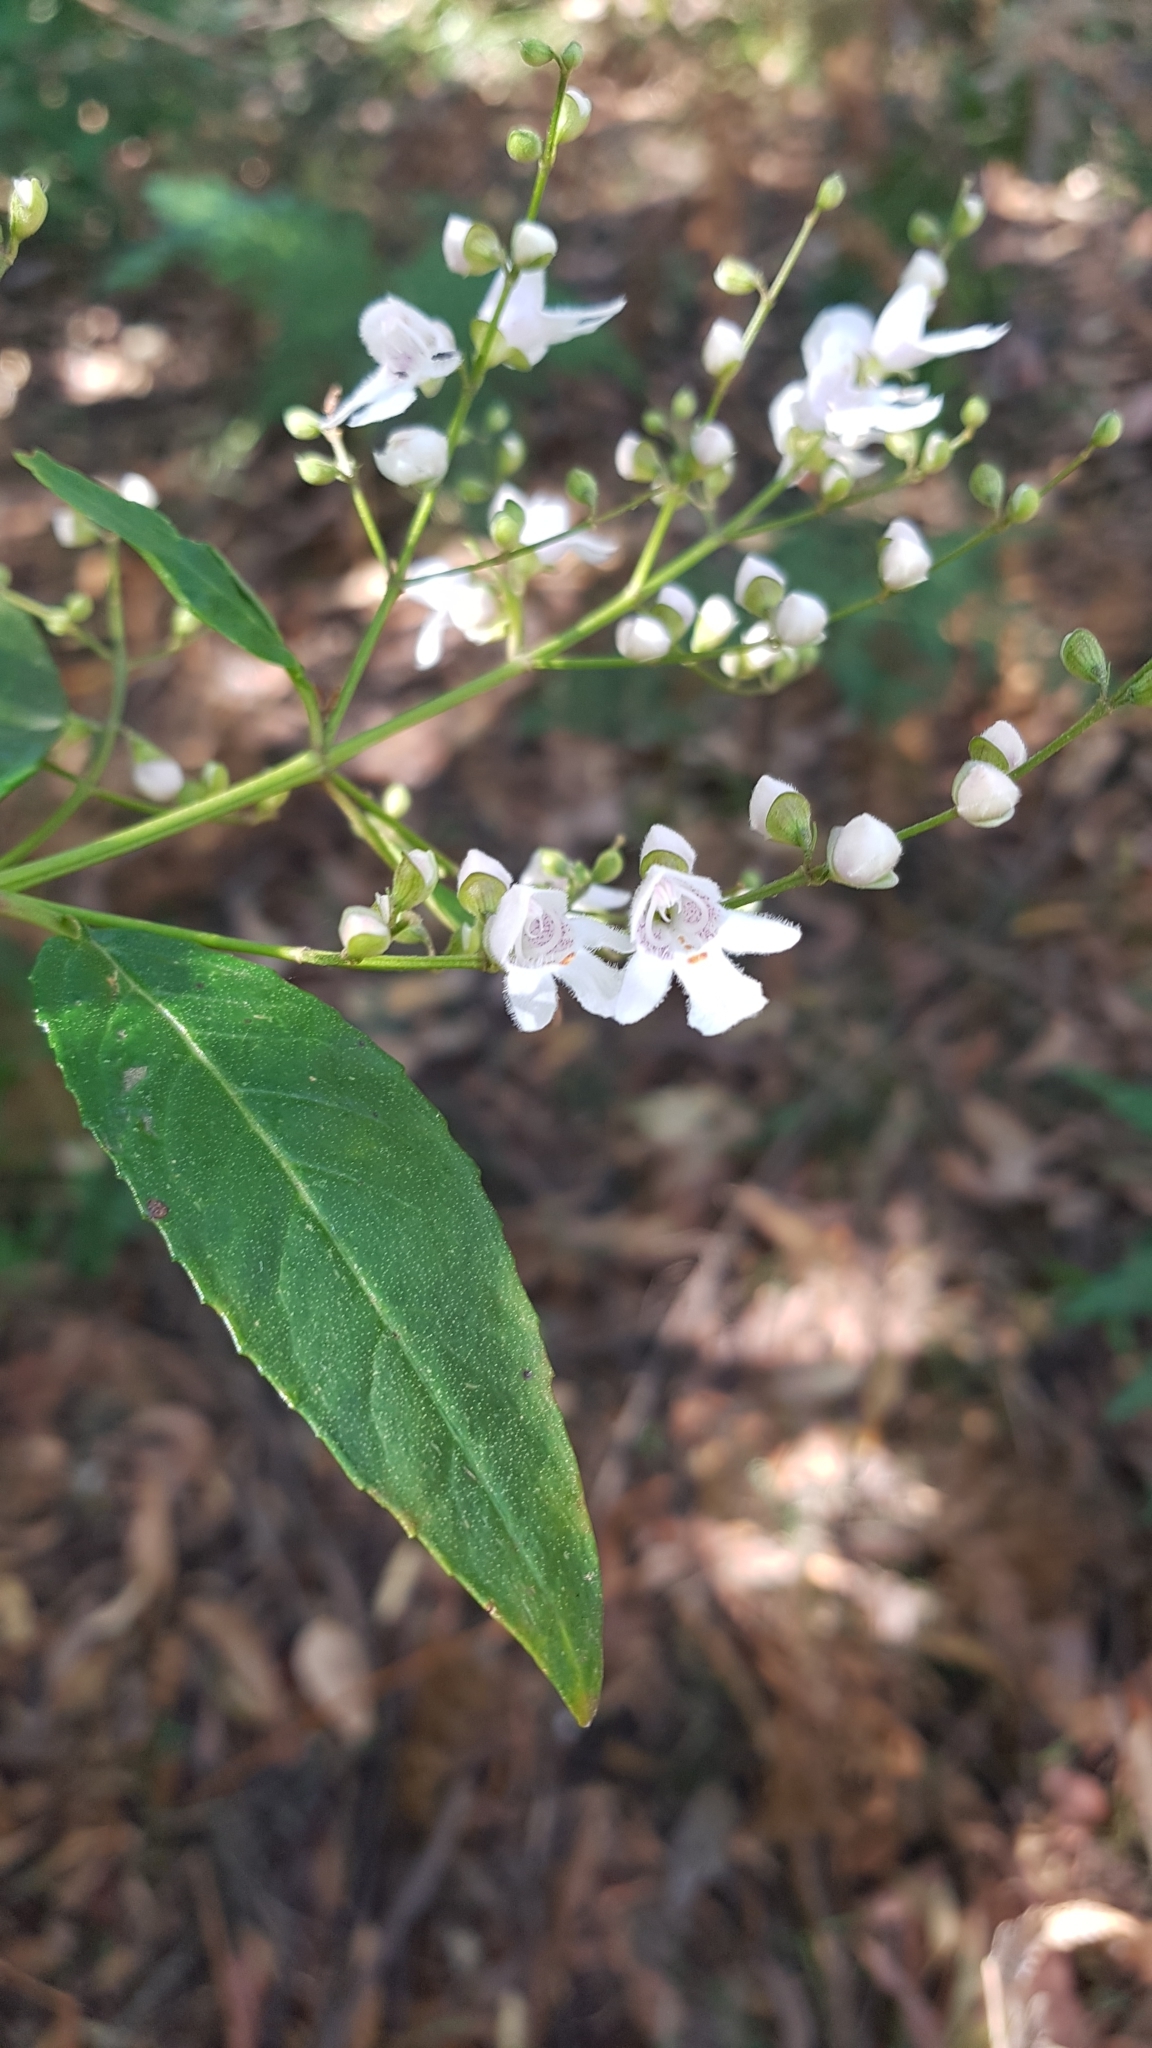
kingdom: Plantae
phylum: Tracheophyta
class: Magnoliopsida
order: Lamiales
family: Lamiaceae
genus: Prostanthera
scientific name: Prostanthera lasianthos
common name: Mountain-lilac
